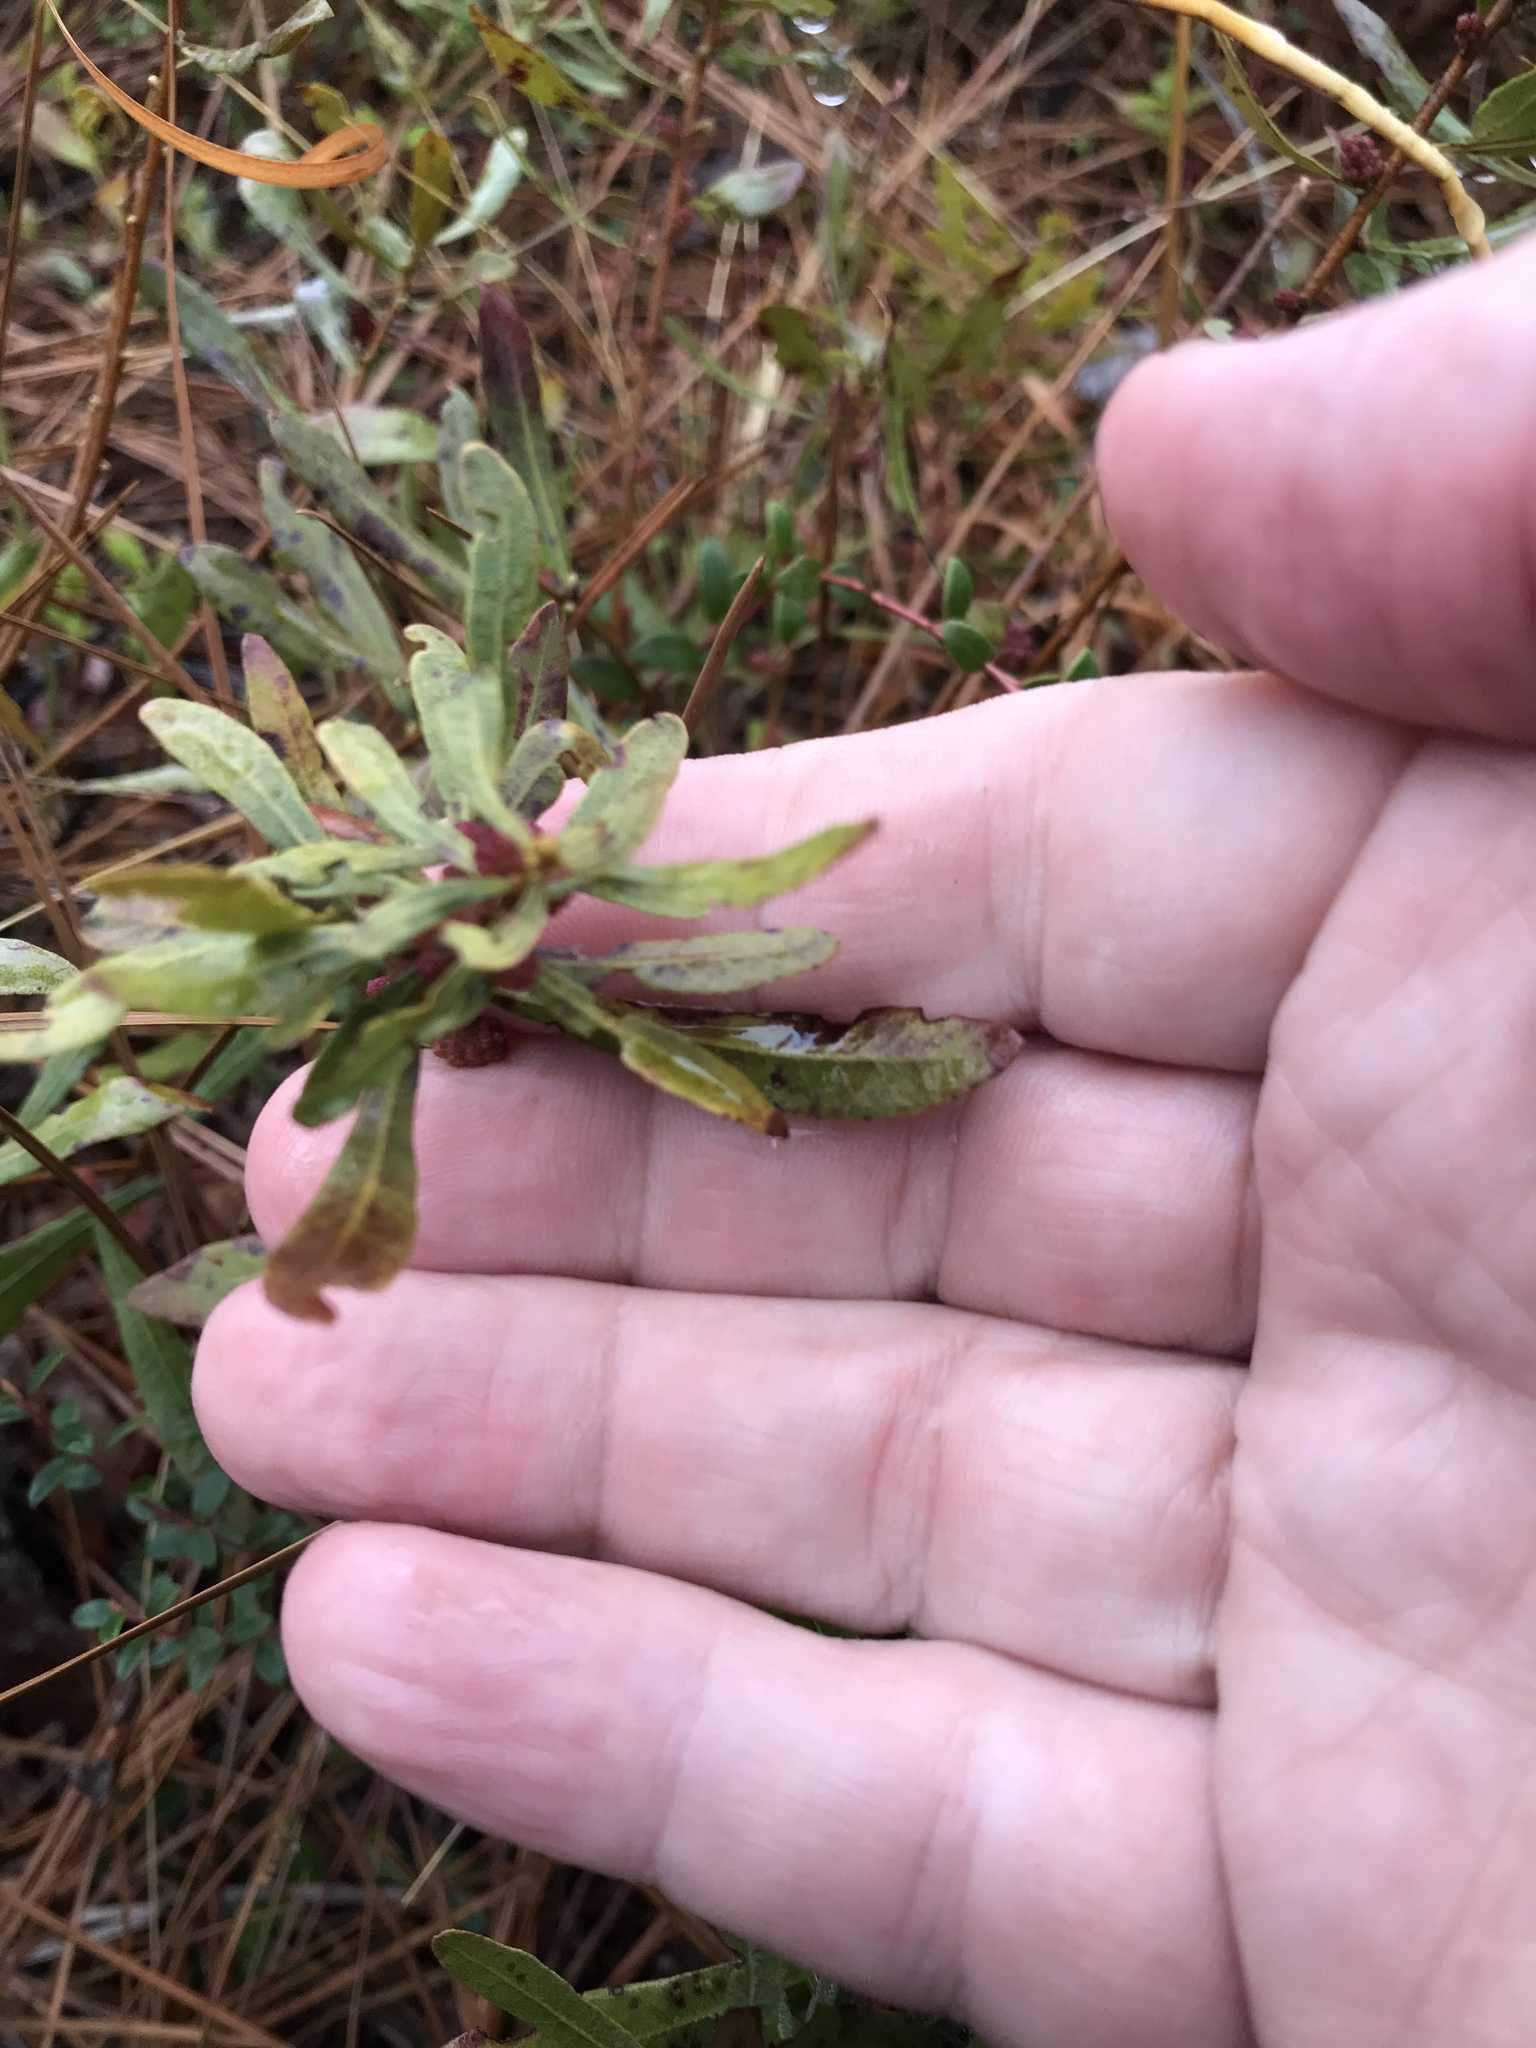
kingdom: Plantae
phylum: Tracheophyta
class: Magnoliopsida
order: Fagales
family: Myricaceae
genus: Morella
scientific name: Morella cerifera
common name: Wax myrtle
